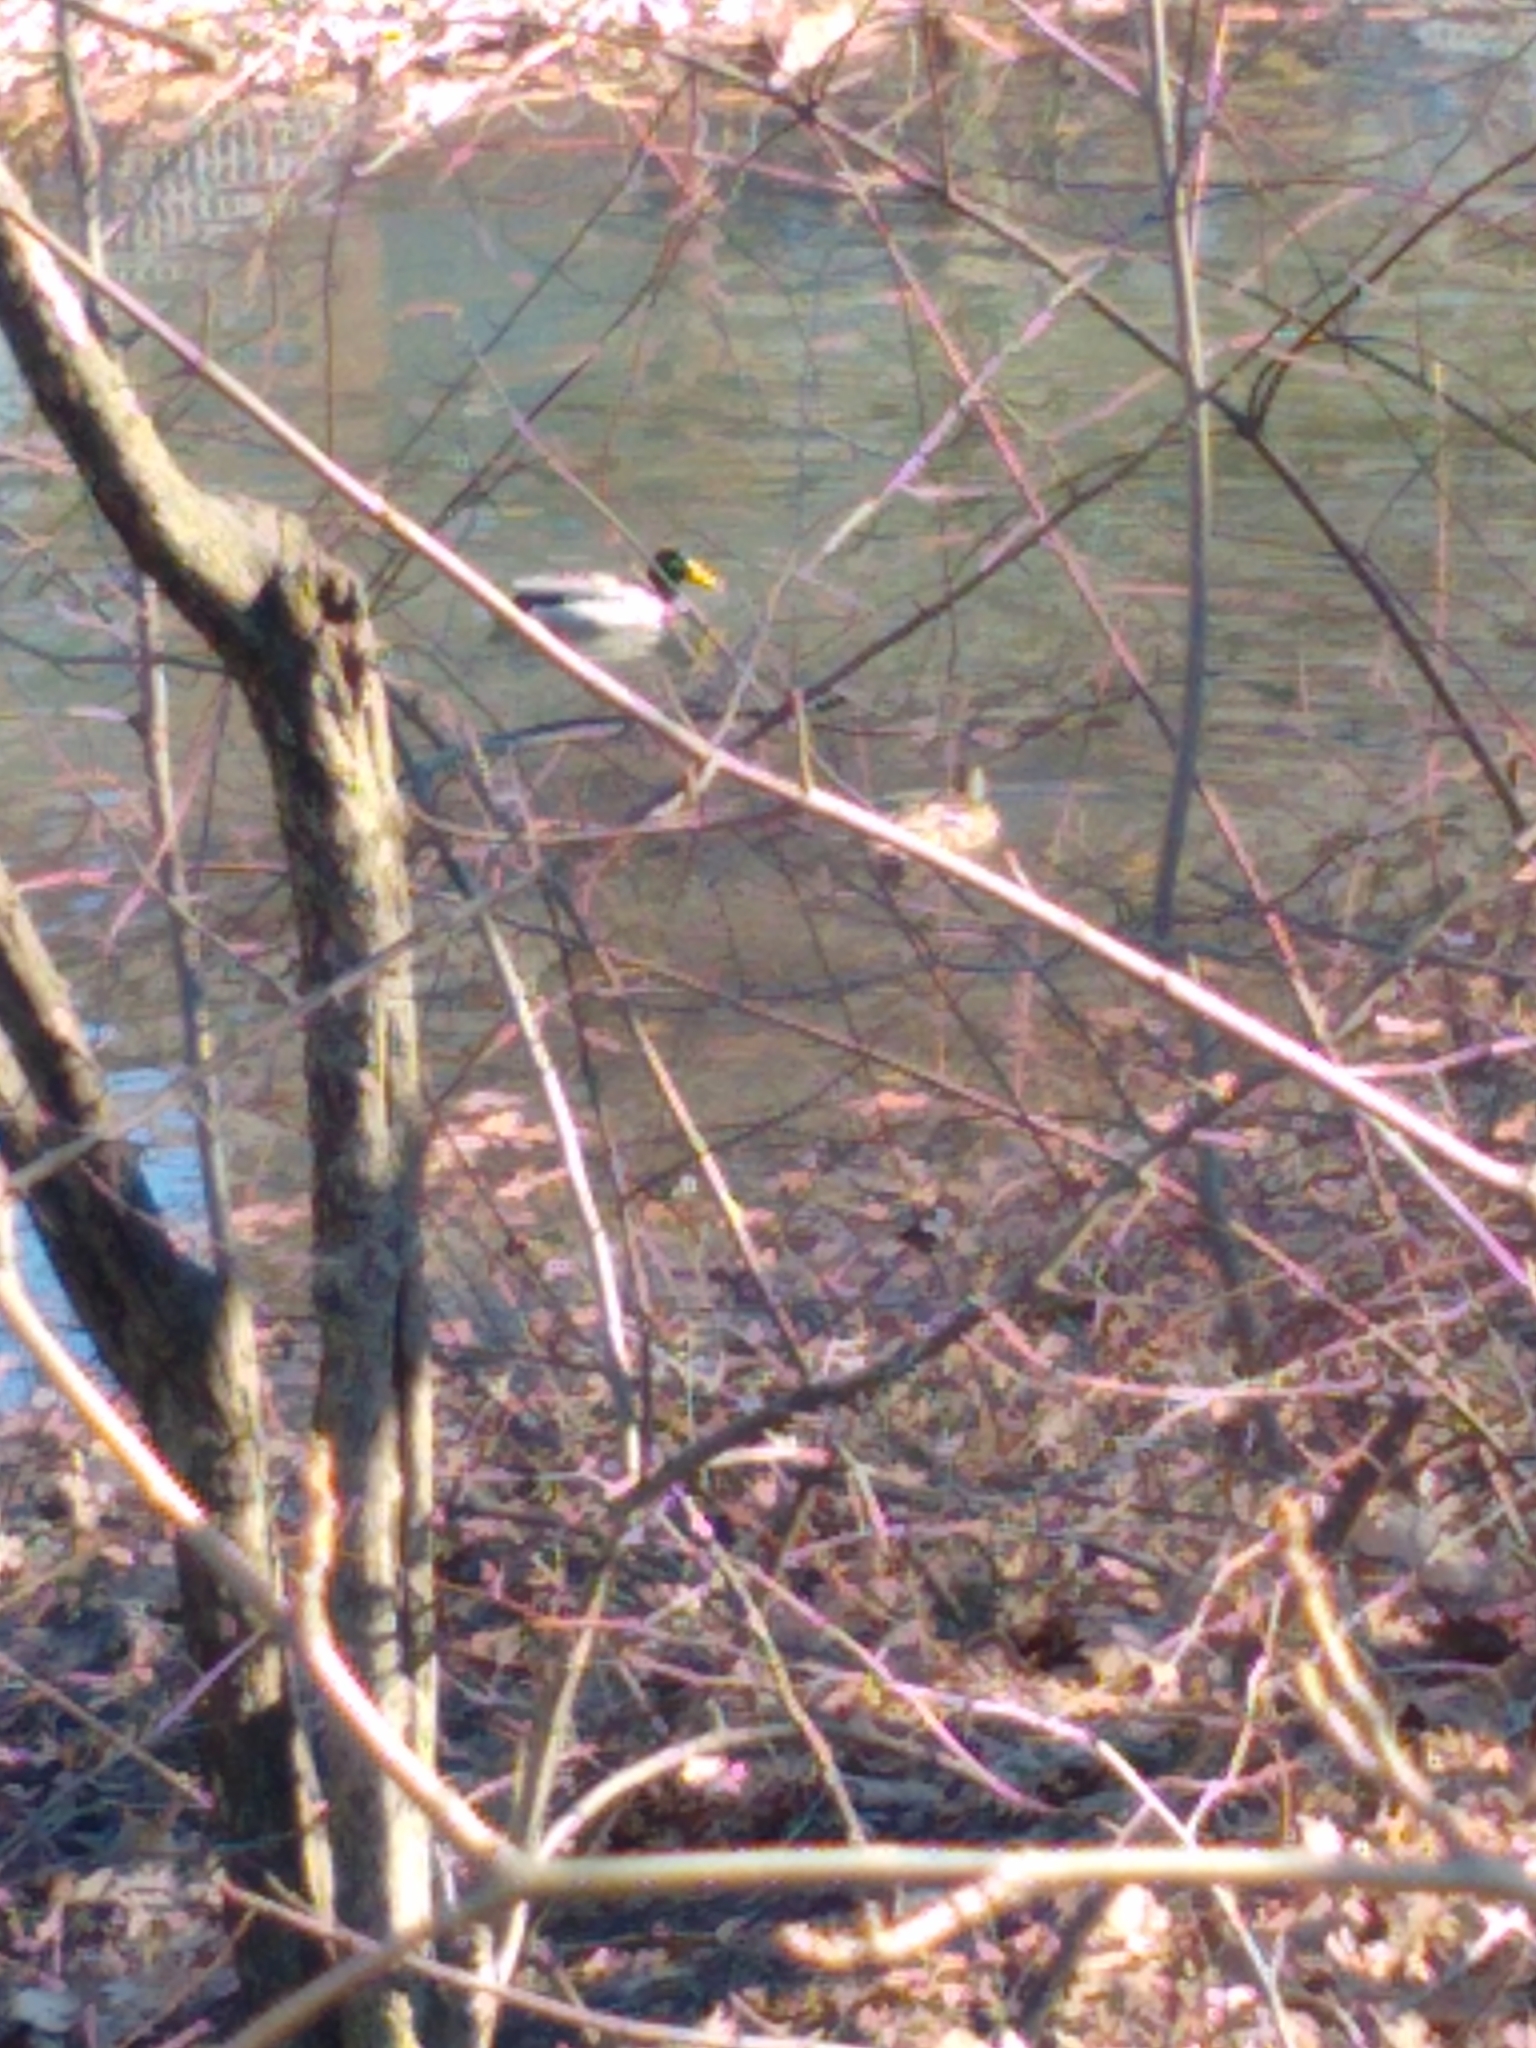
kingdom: Animalia
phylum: Chordata
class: Aves
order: Anseriformes
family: Anatidae
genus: Anas
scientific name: Anas platyrhynchos
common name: Mallard
